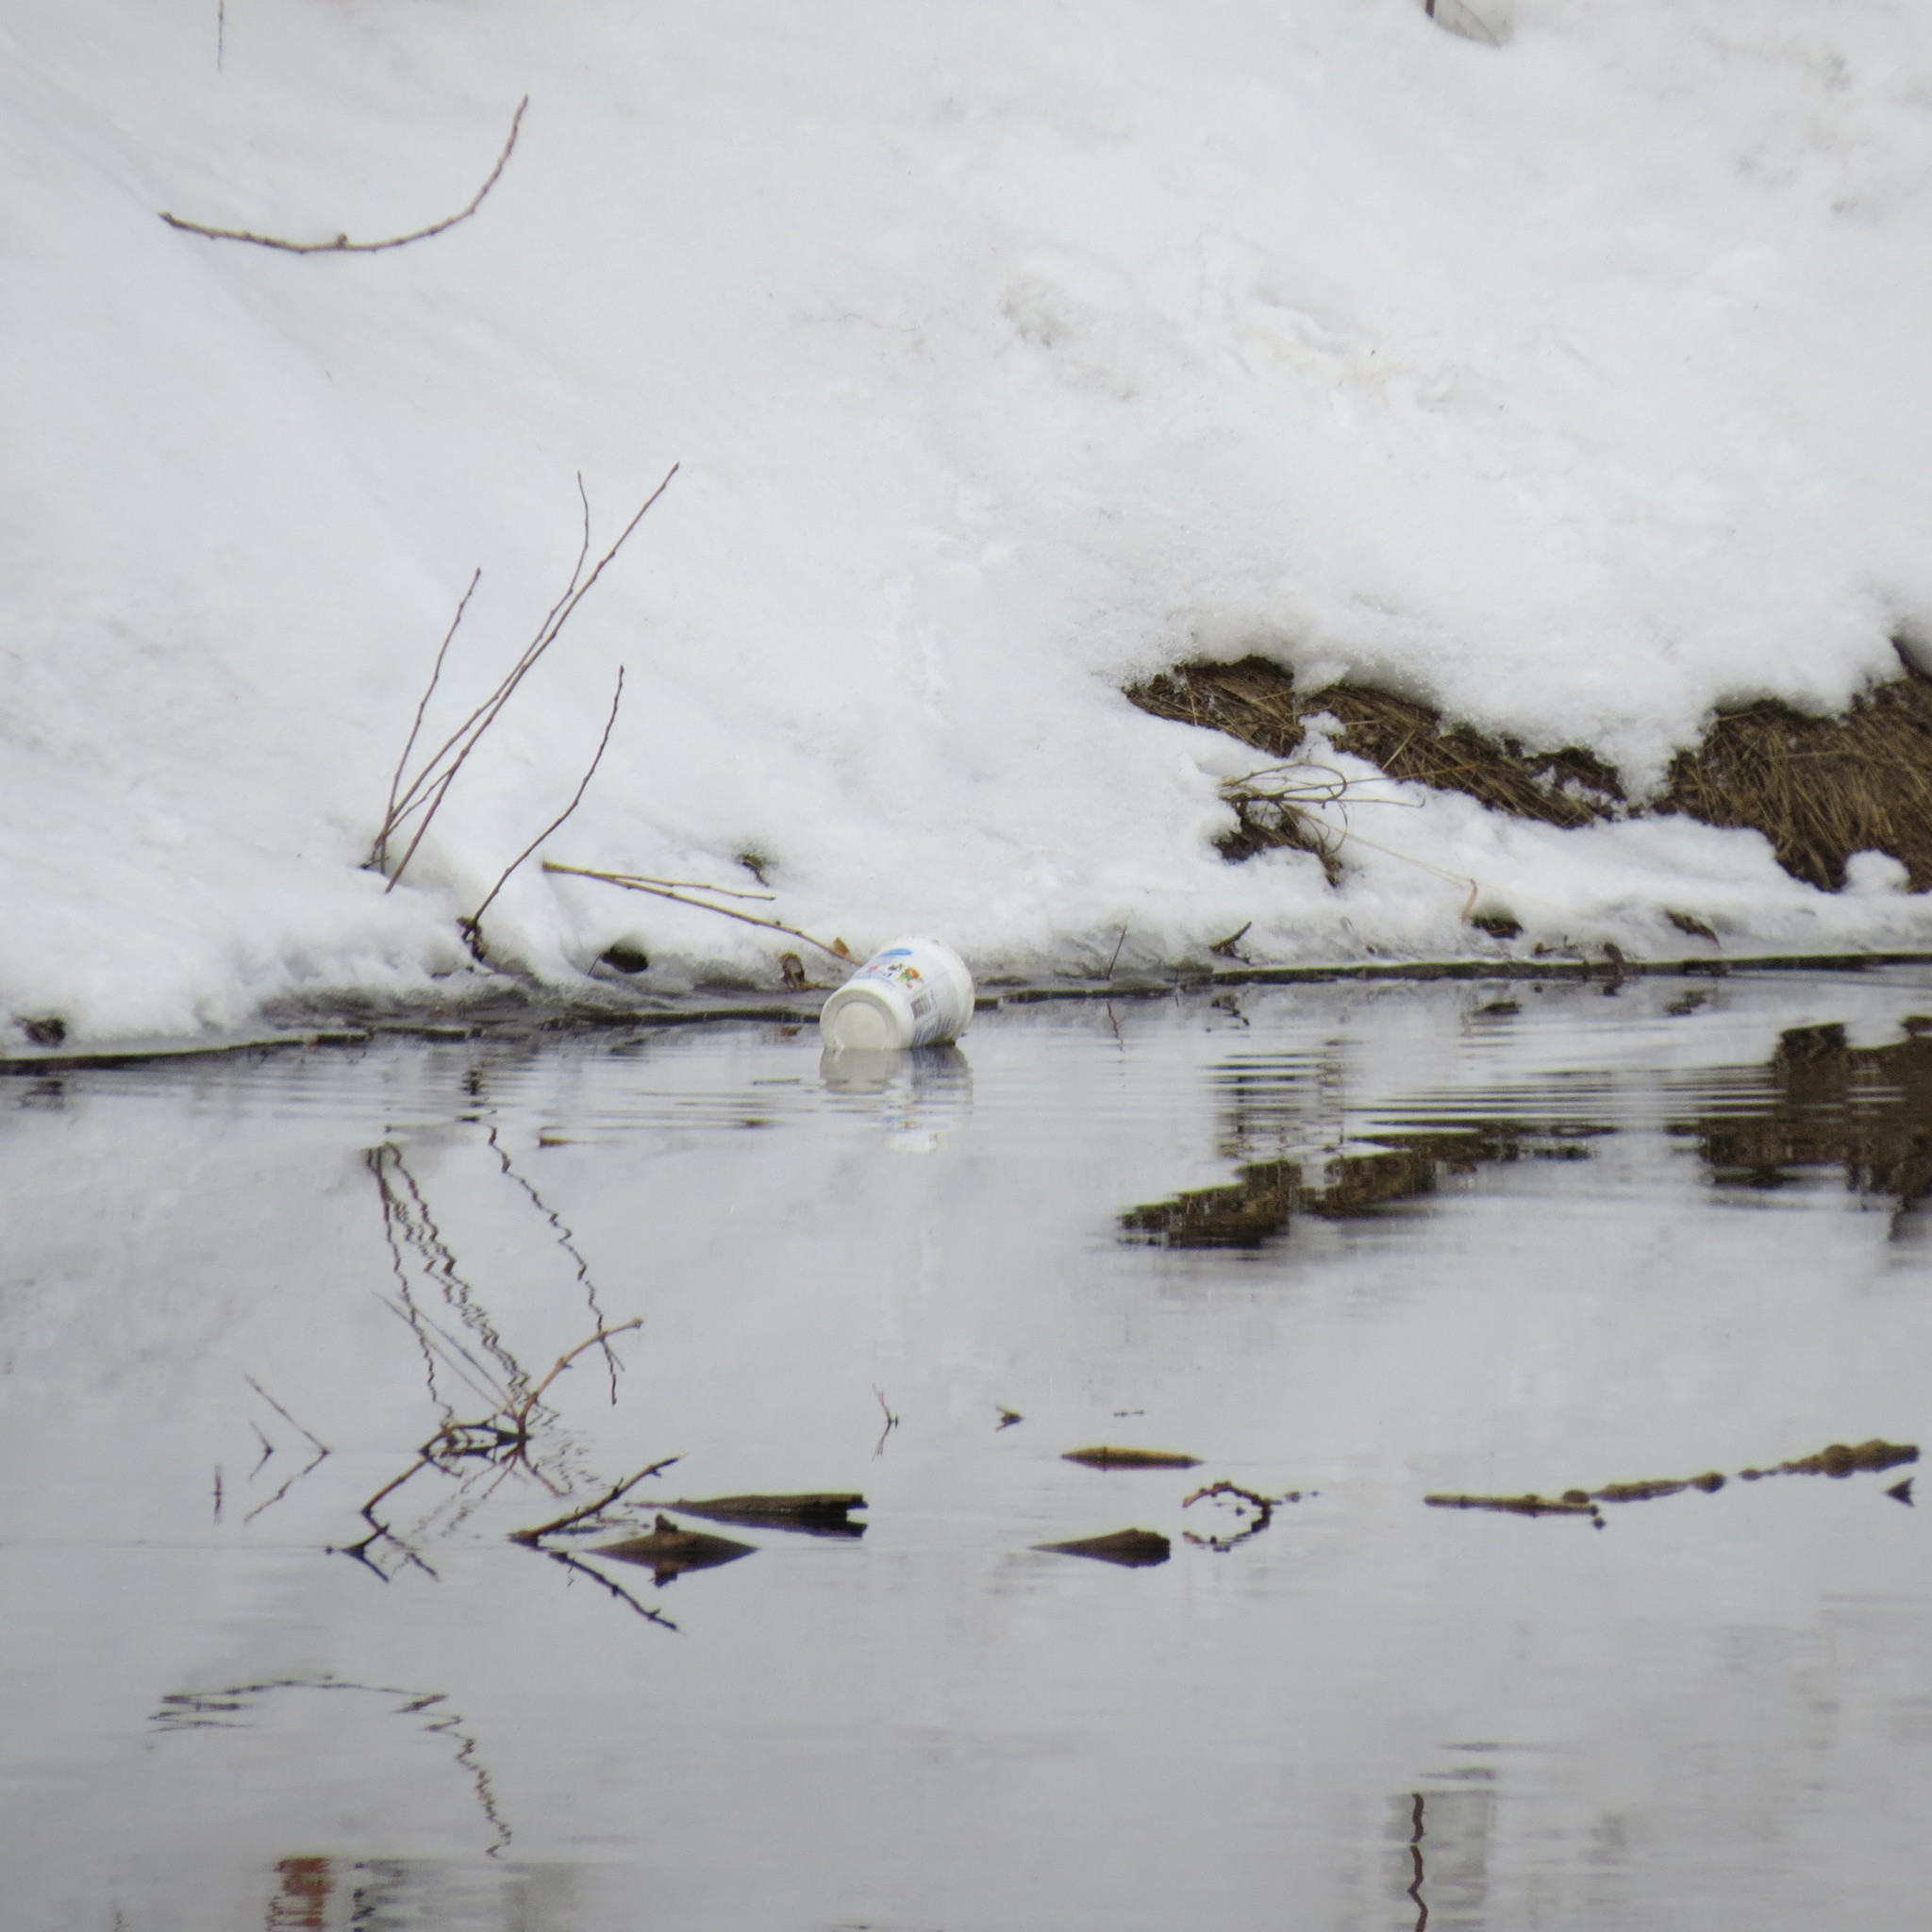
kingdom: Animalia
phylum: Chordata
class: Aves
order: Passeriformes
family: Corvidae
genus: Corvus
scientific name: Corvus cornix
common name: Hooded crow
